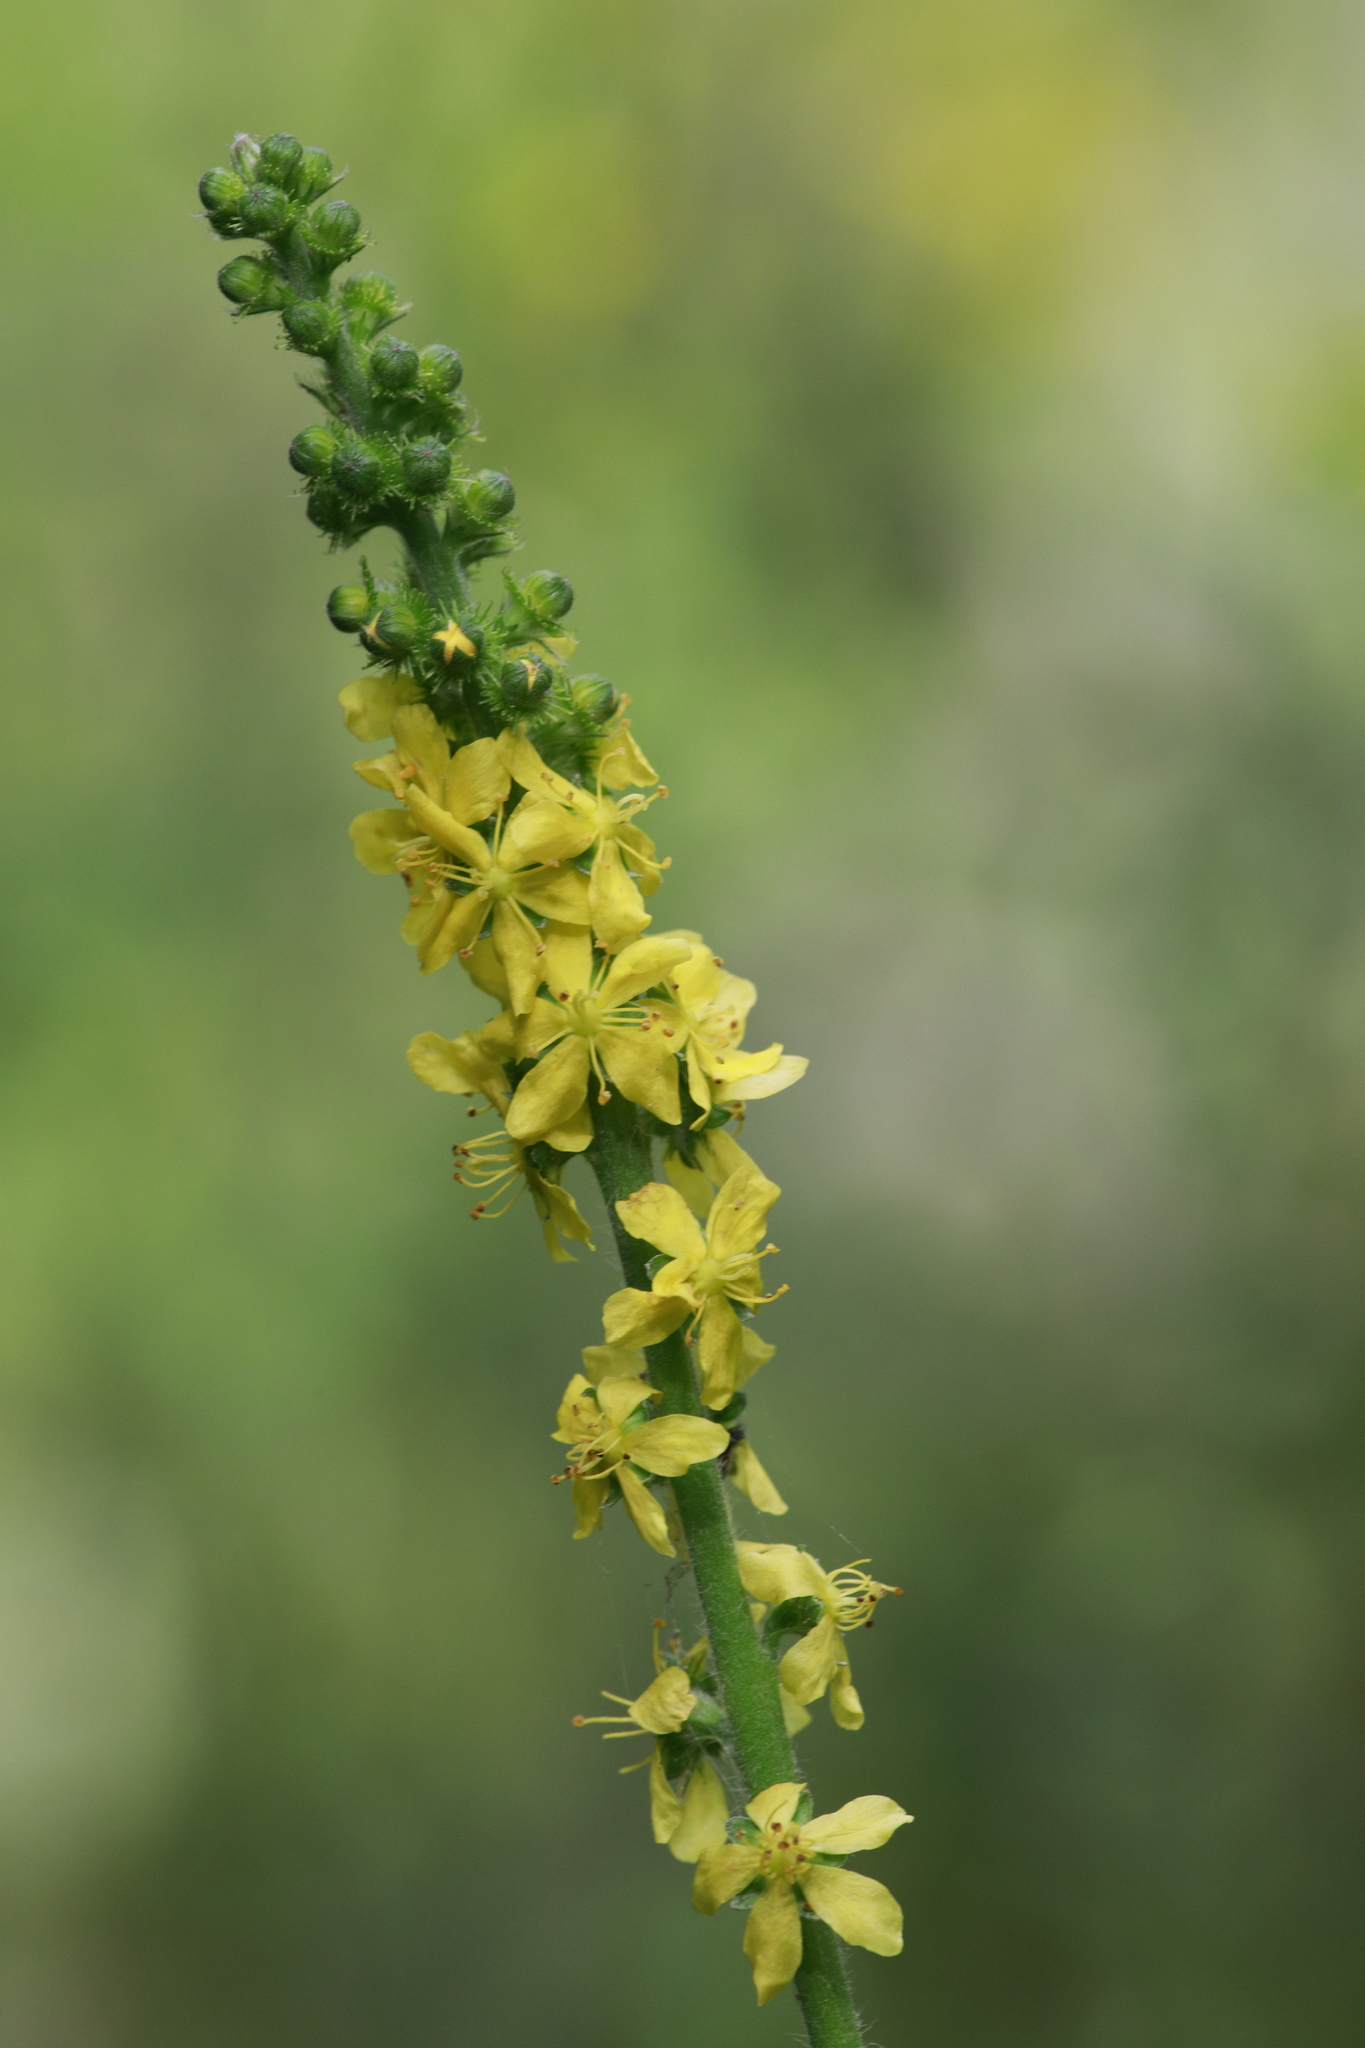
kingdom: Plantae
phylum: Tracheophyta
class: Magnoliopsida
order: Rosales
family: Rosaceae
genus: Agrimonia
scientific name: Agrimonia eupatoria
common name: Agrimony
